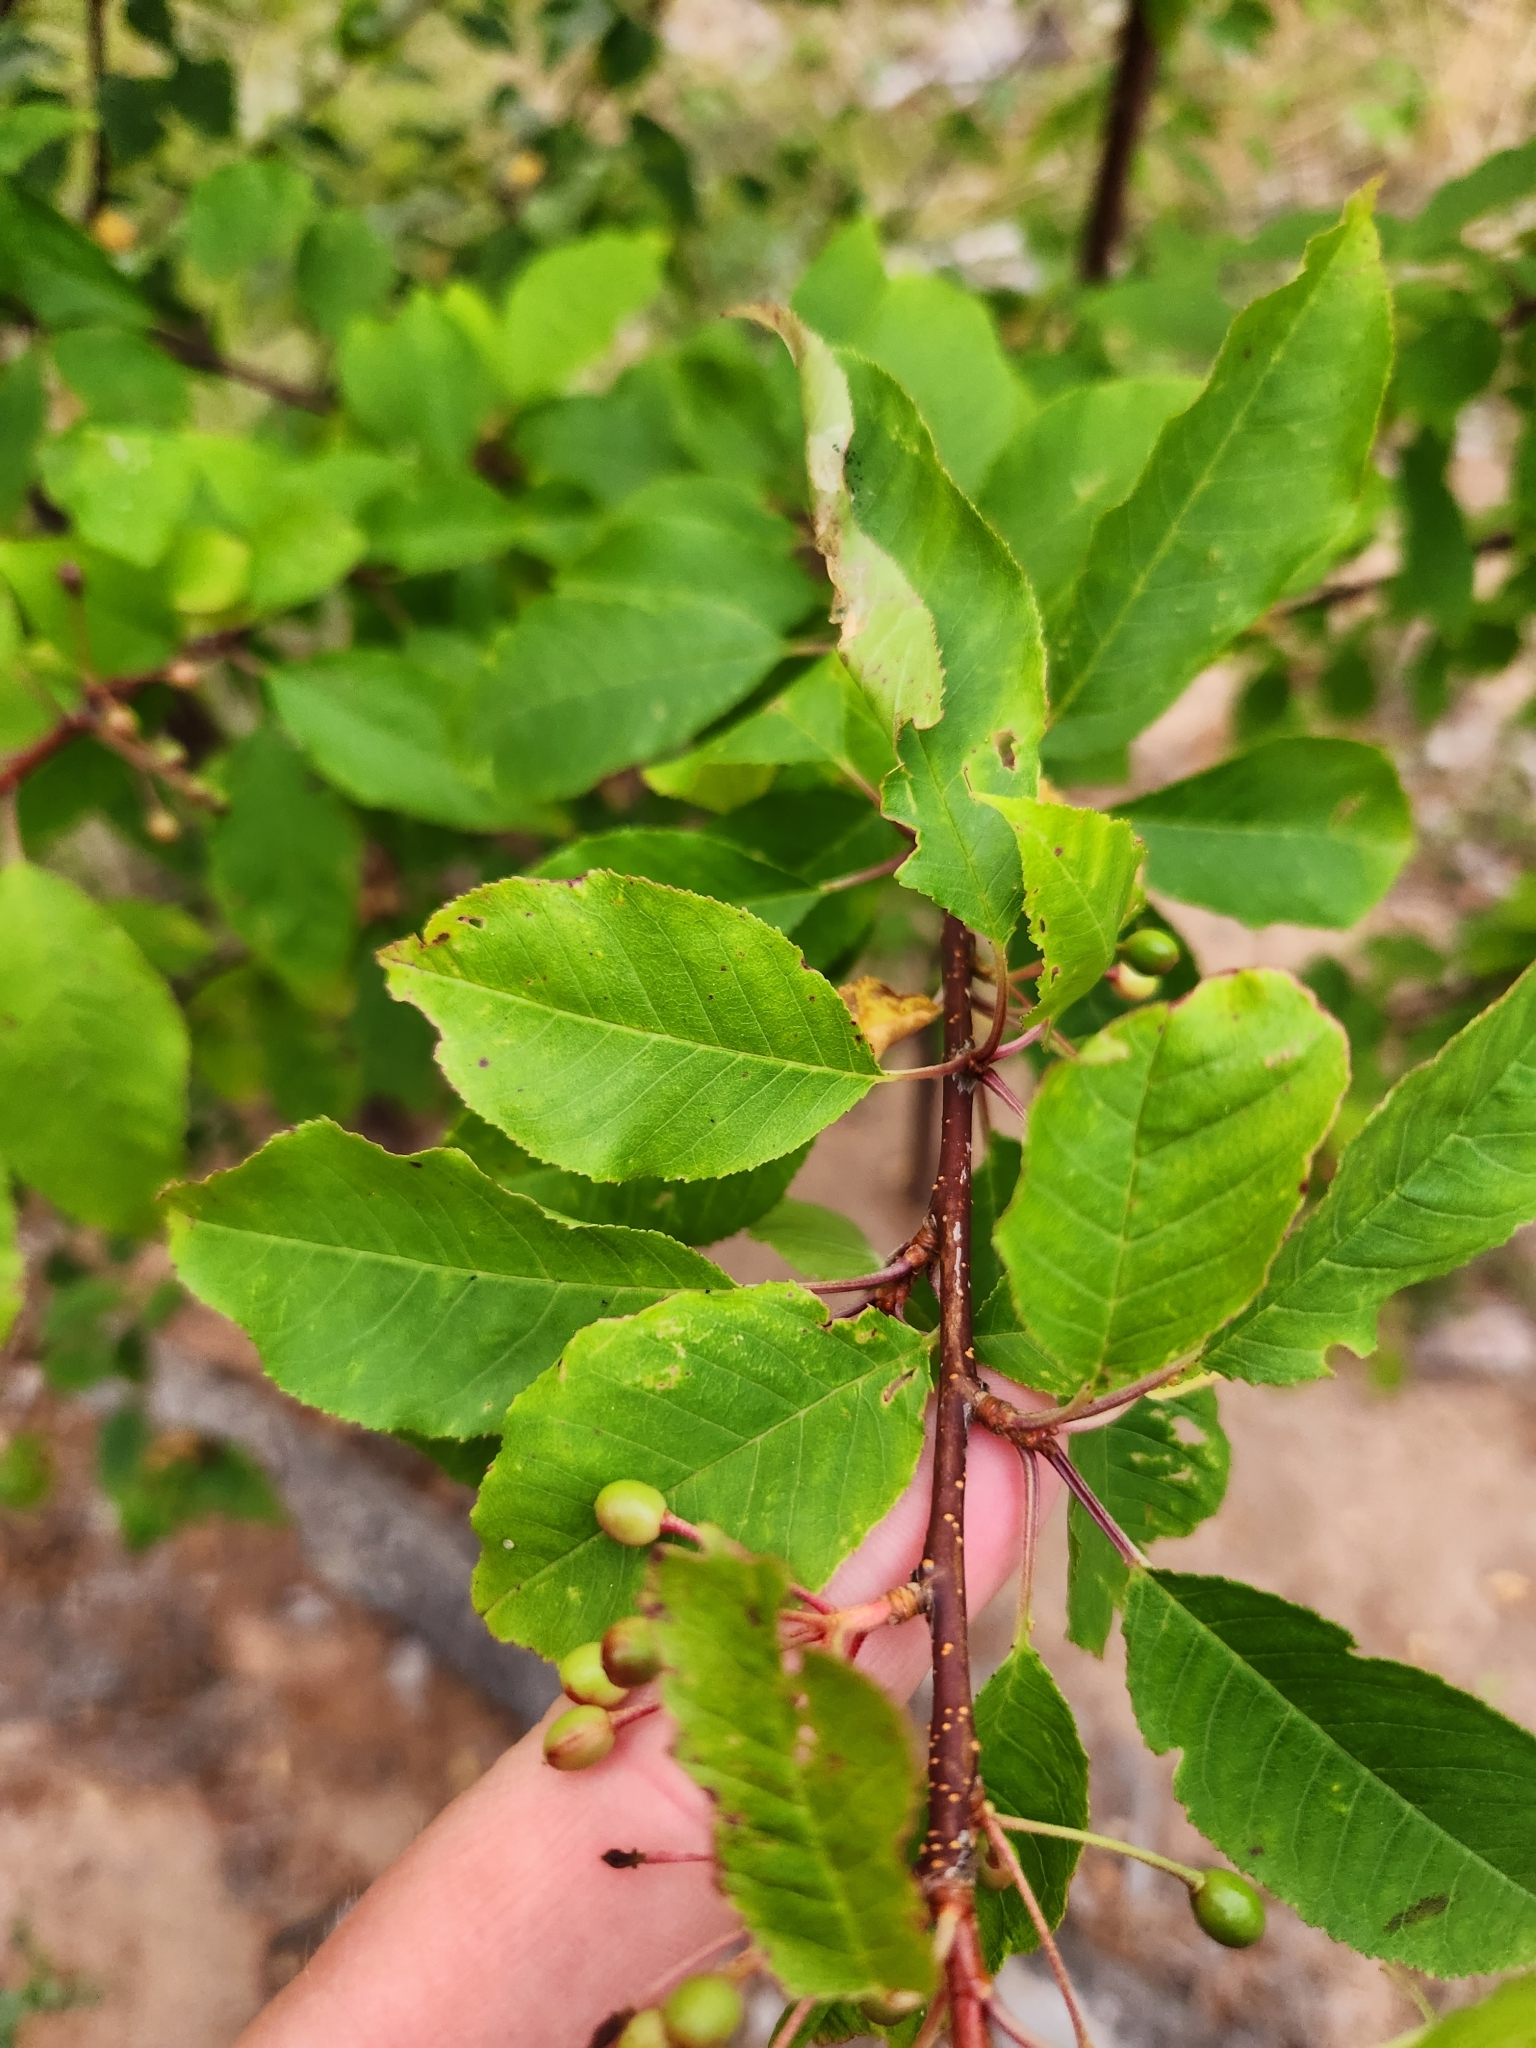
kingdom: Plantae
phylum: Tracheophyta
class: Magnoliopsida
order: Rosales
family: Rosaceae
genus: Prunus
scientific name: Prunus pensylvanica
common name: Pin cherry
